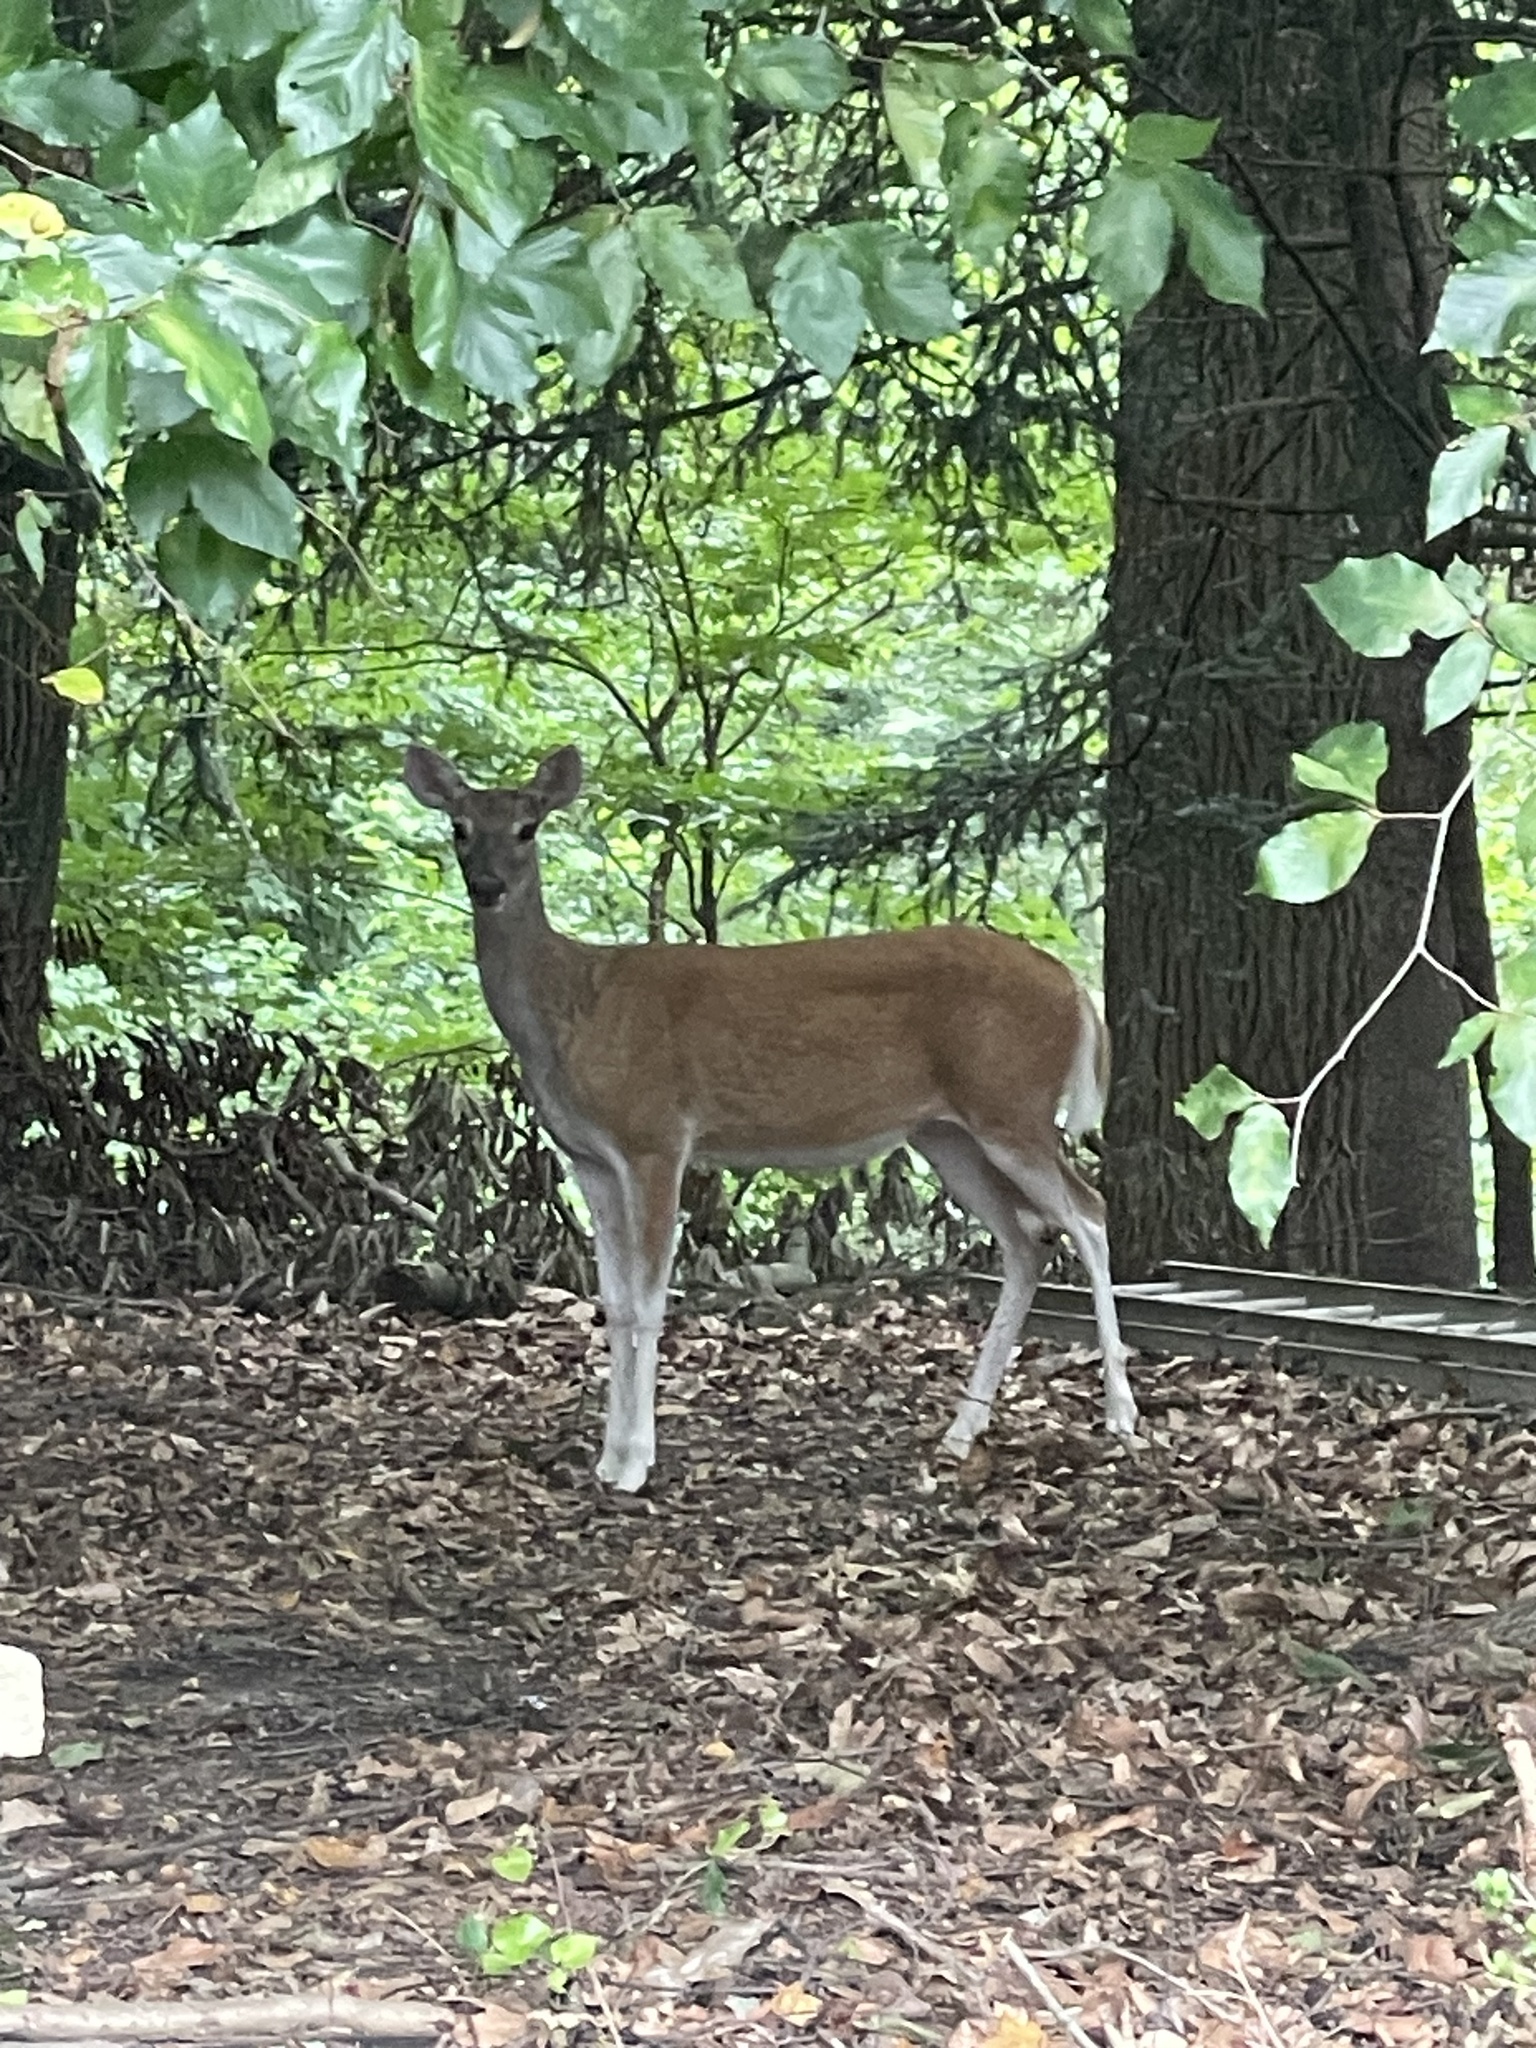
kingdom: Animalia
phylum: Chordata
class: Mammalia
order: Artiodactyla
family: Cervidae
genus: Odocoileus
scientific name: Odocoileus virginianus
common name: White-tailed deer
